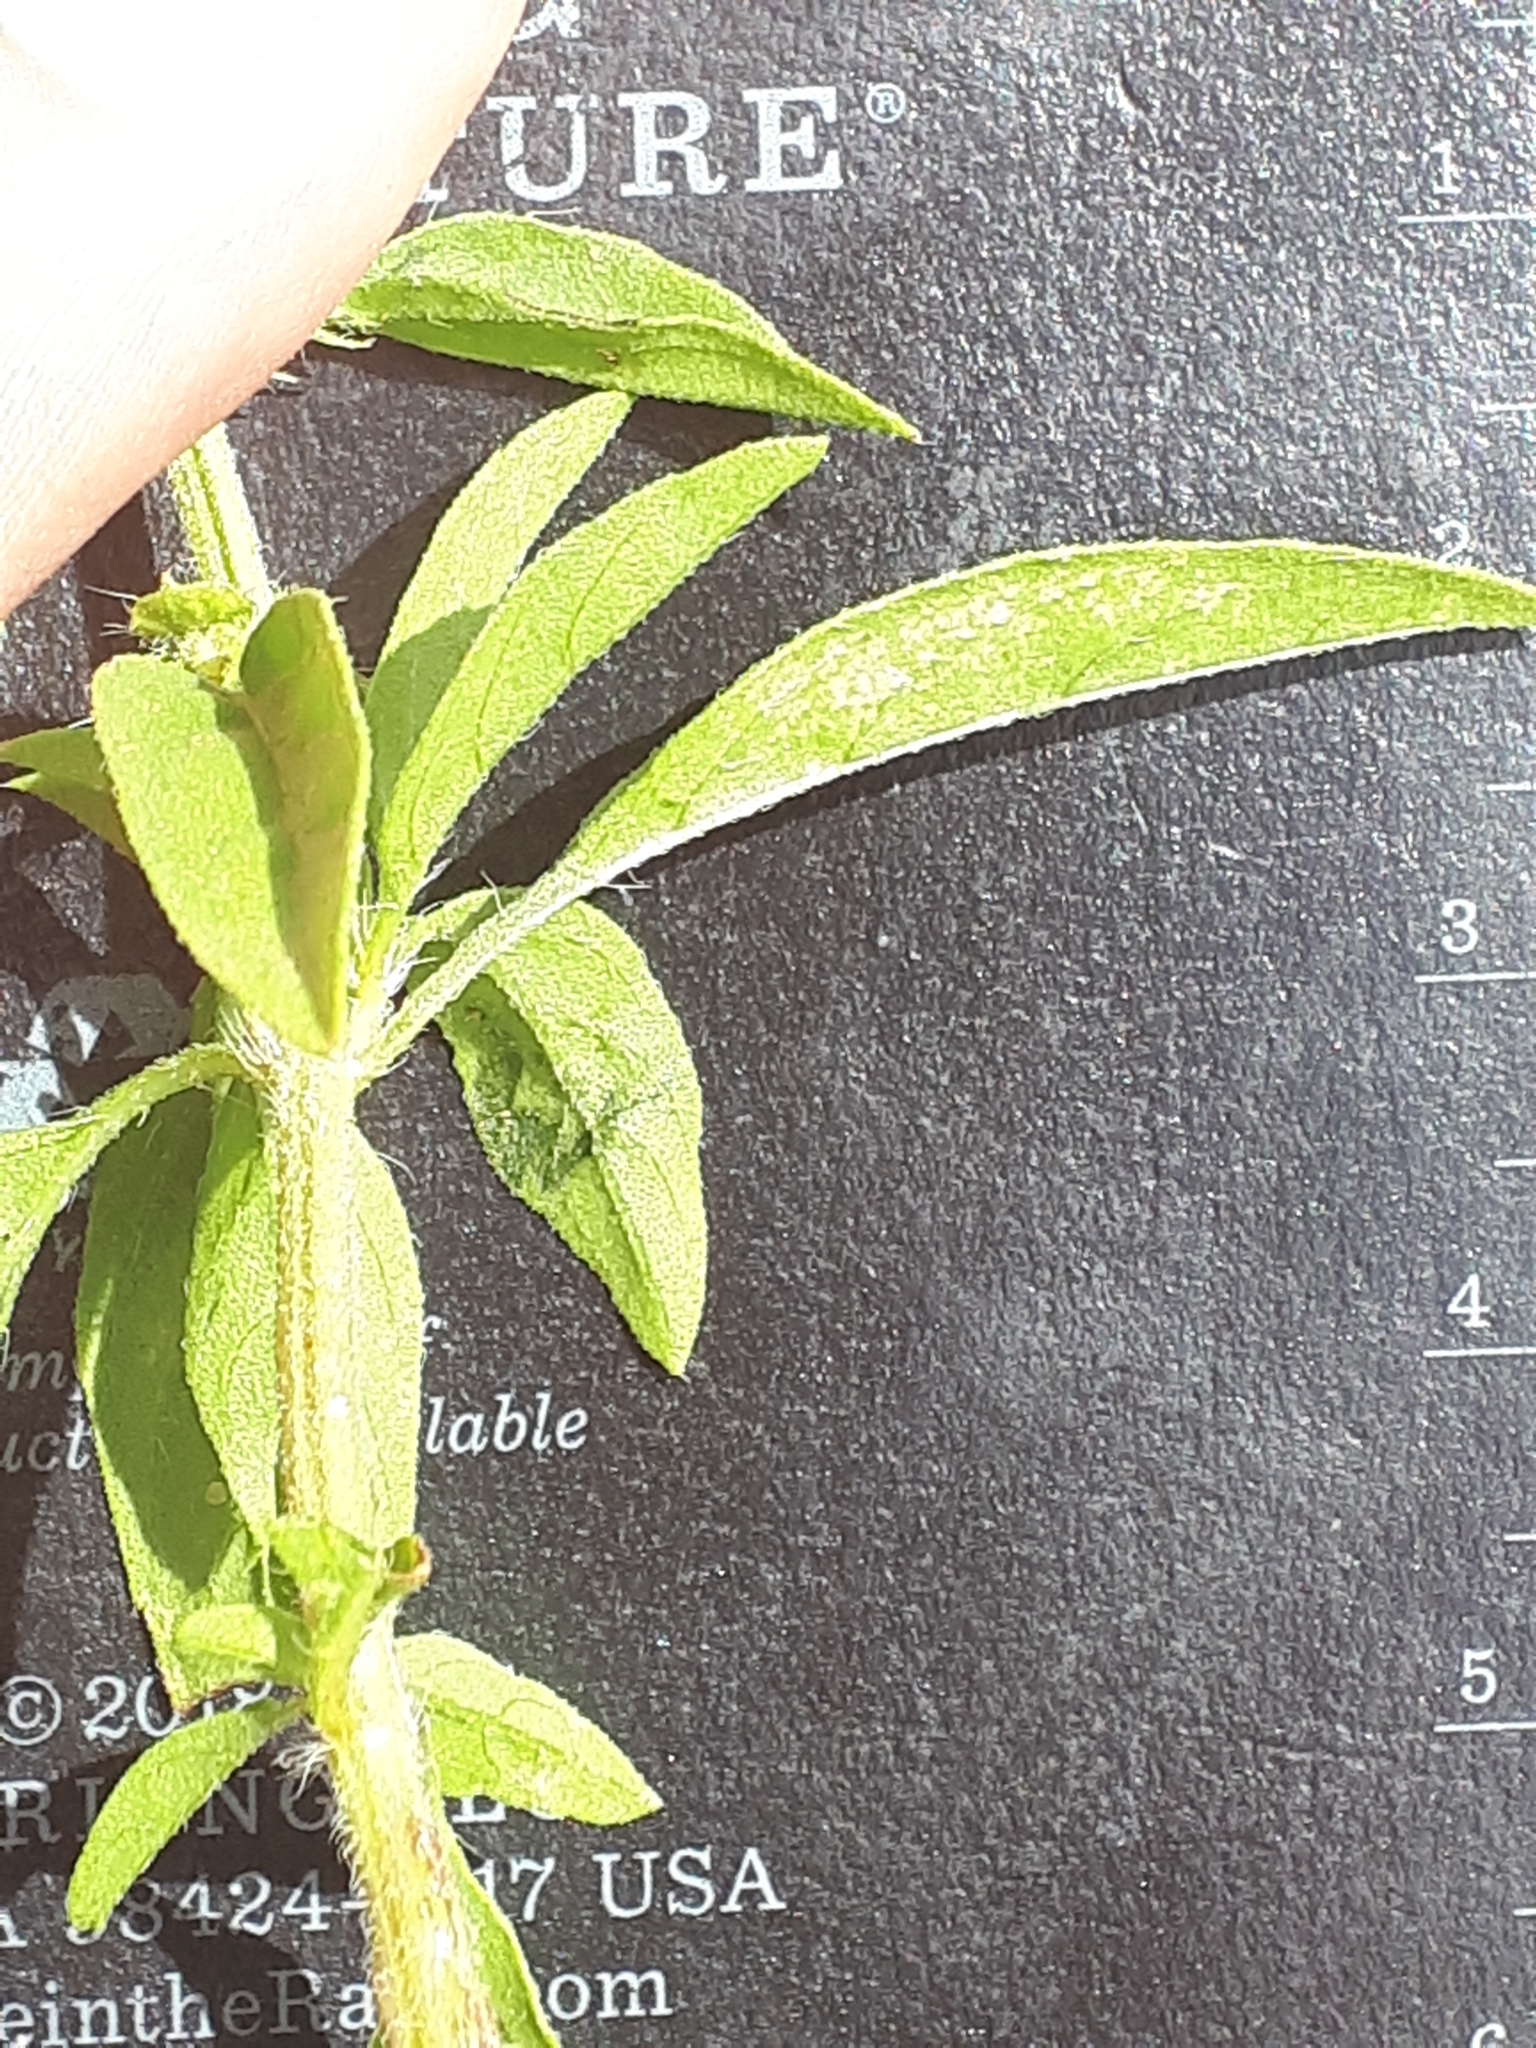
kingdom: Plantae
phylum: Tracheophyta
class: Magnoliopsida
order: Lamiales
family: Lamiaceae
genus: Ocimum
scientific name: Ocimum americanum
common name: American basil
